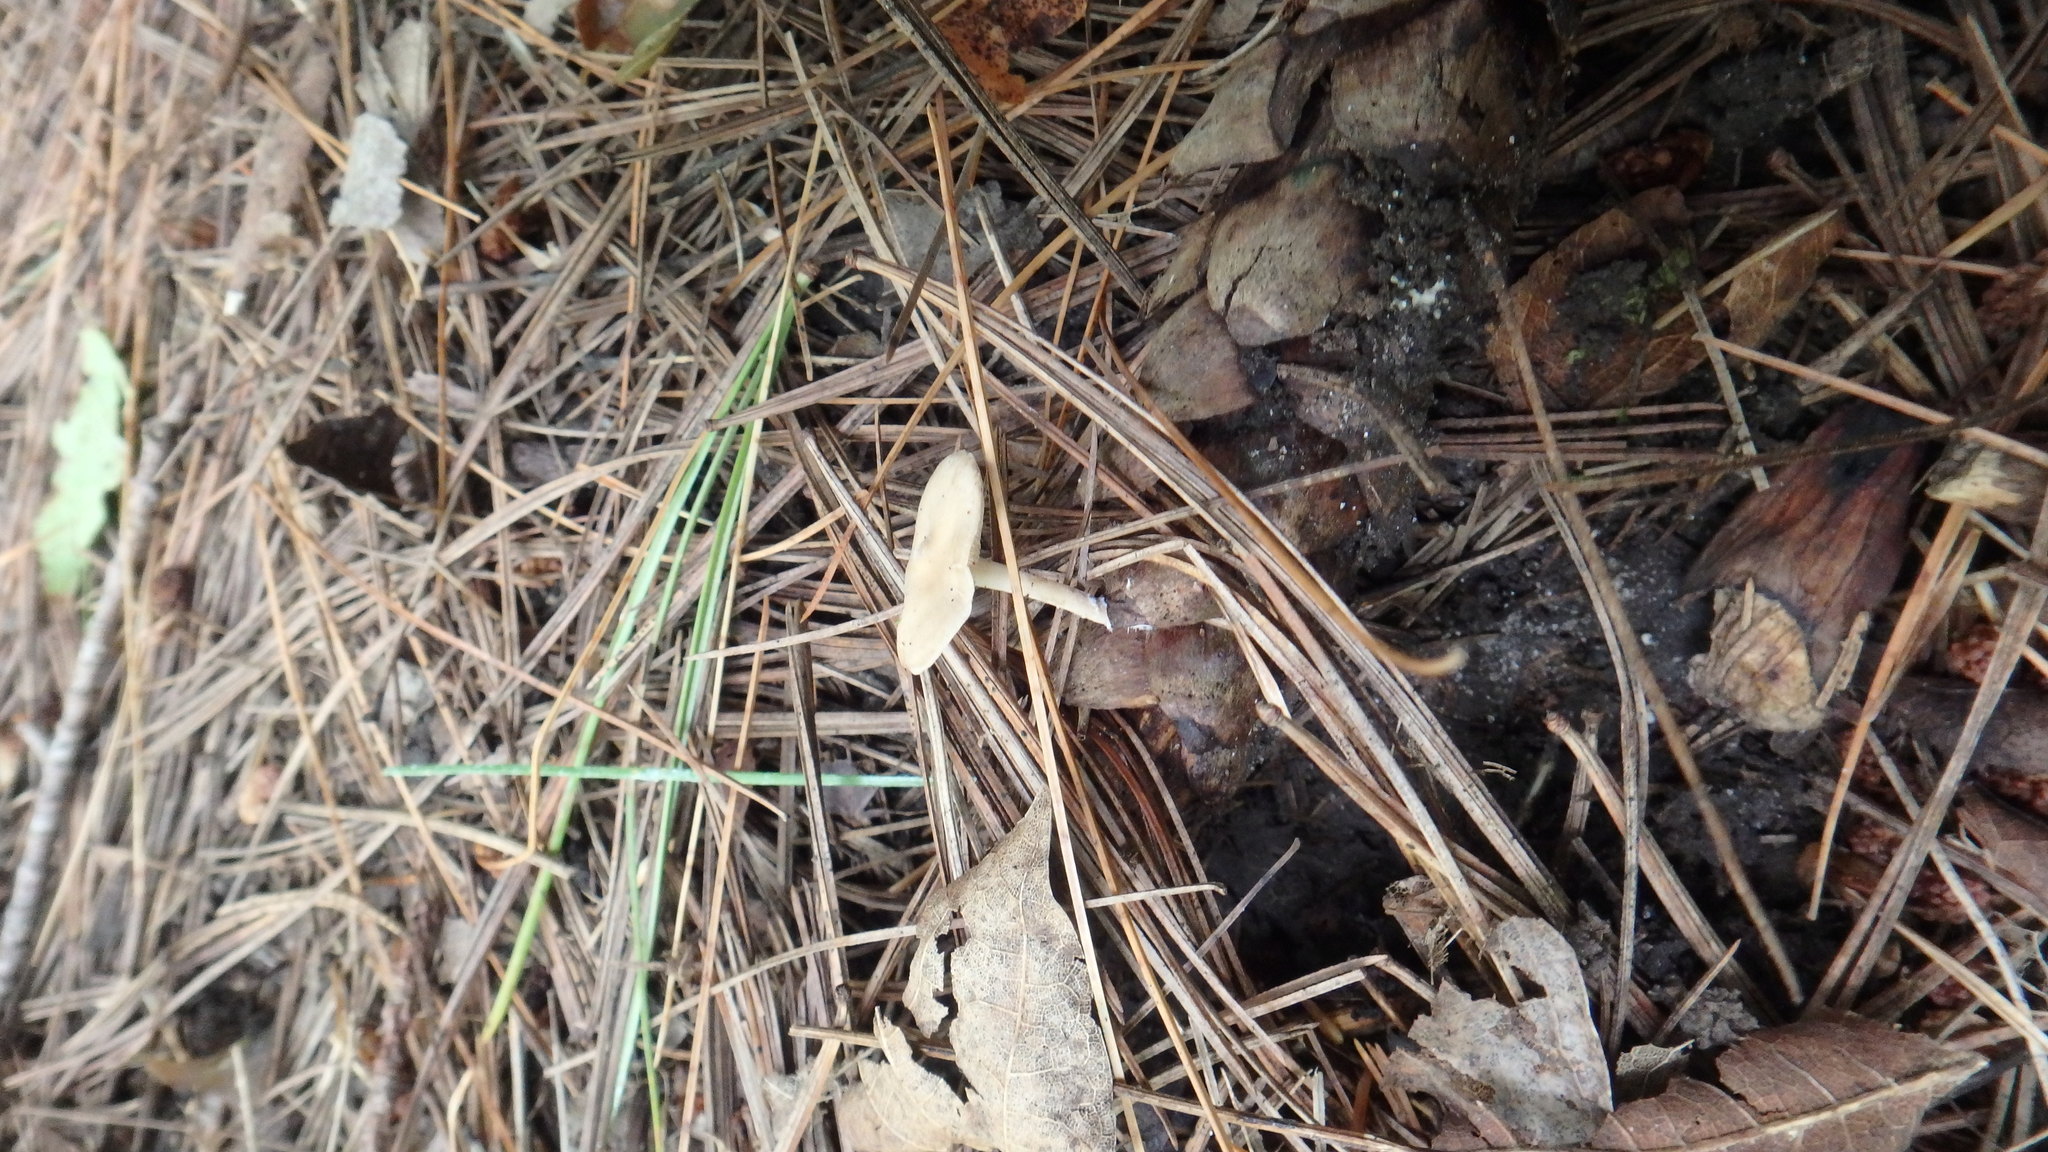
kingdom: Fungi
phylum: Basidiomycota
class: Agaricomycetes
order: Agaricales
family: Marasmiaceae
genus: Baeospora
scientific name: Baeospora myosura
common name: Conifercone cap
